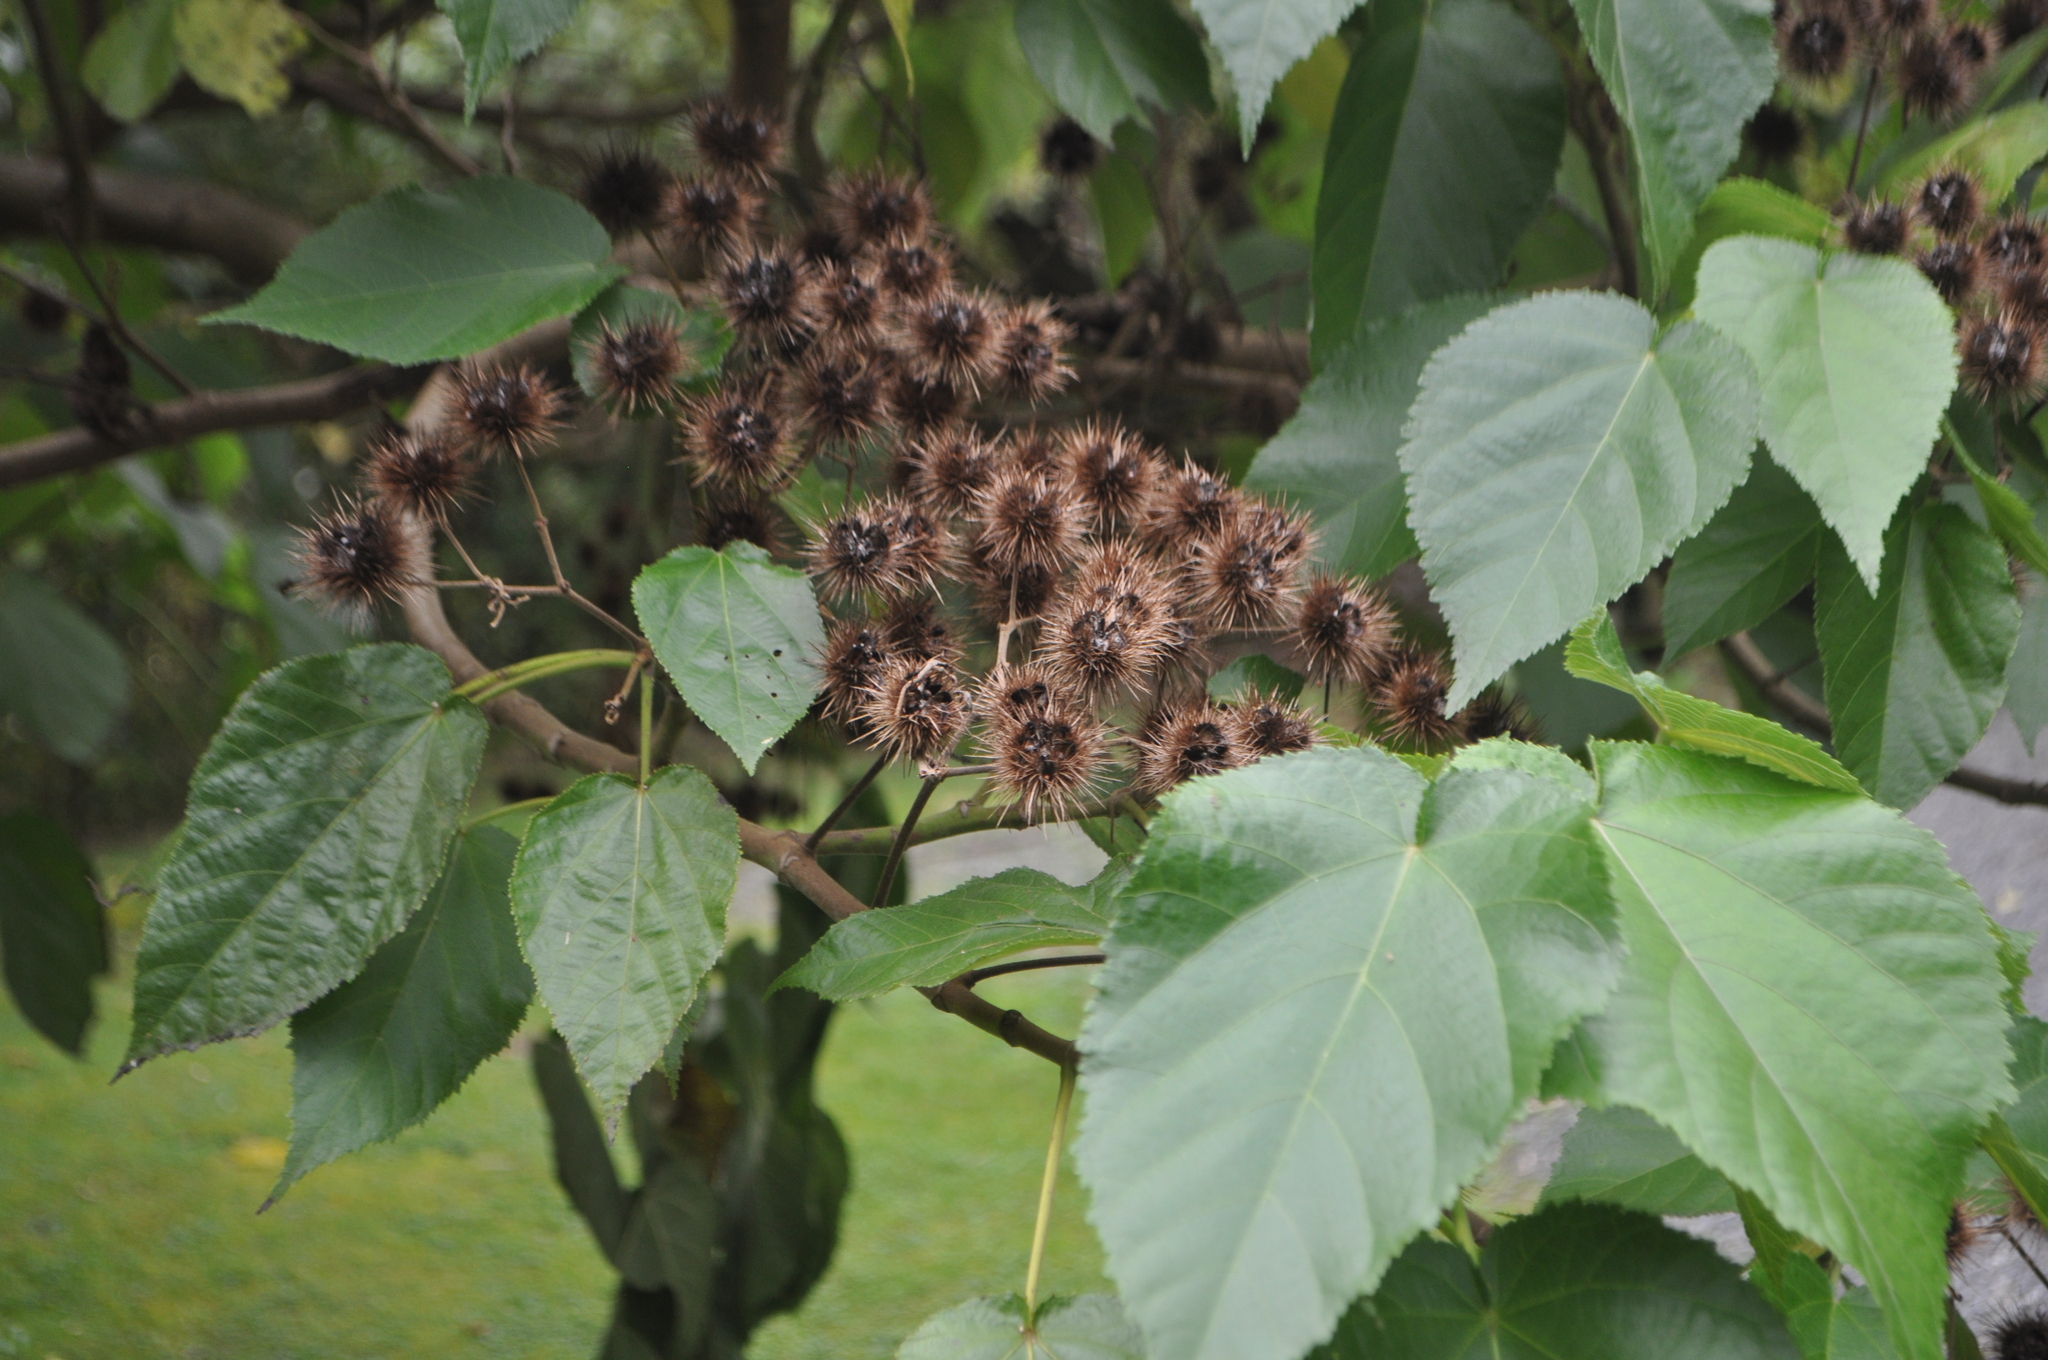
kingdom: Plantae
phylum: Tracheophyta
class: Magnoliopsida
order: Malvales
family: Malvaceae
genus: Entelea
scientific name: Entelea arborescens
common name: New zealand-mulberry
